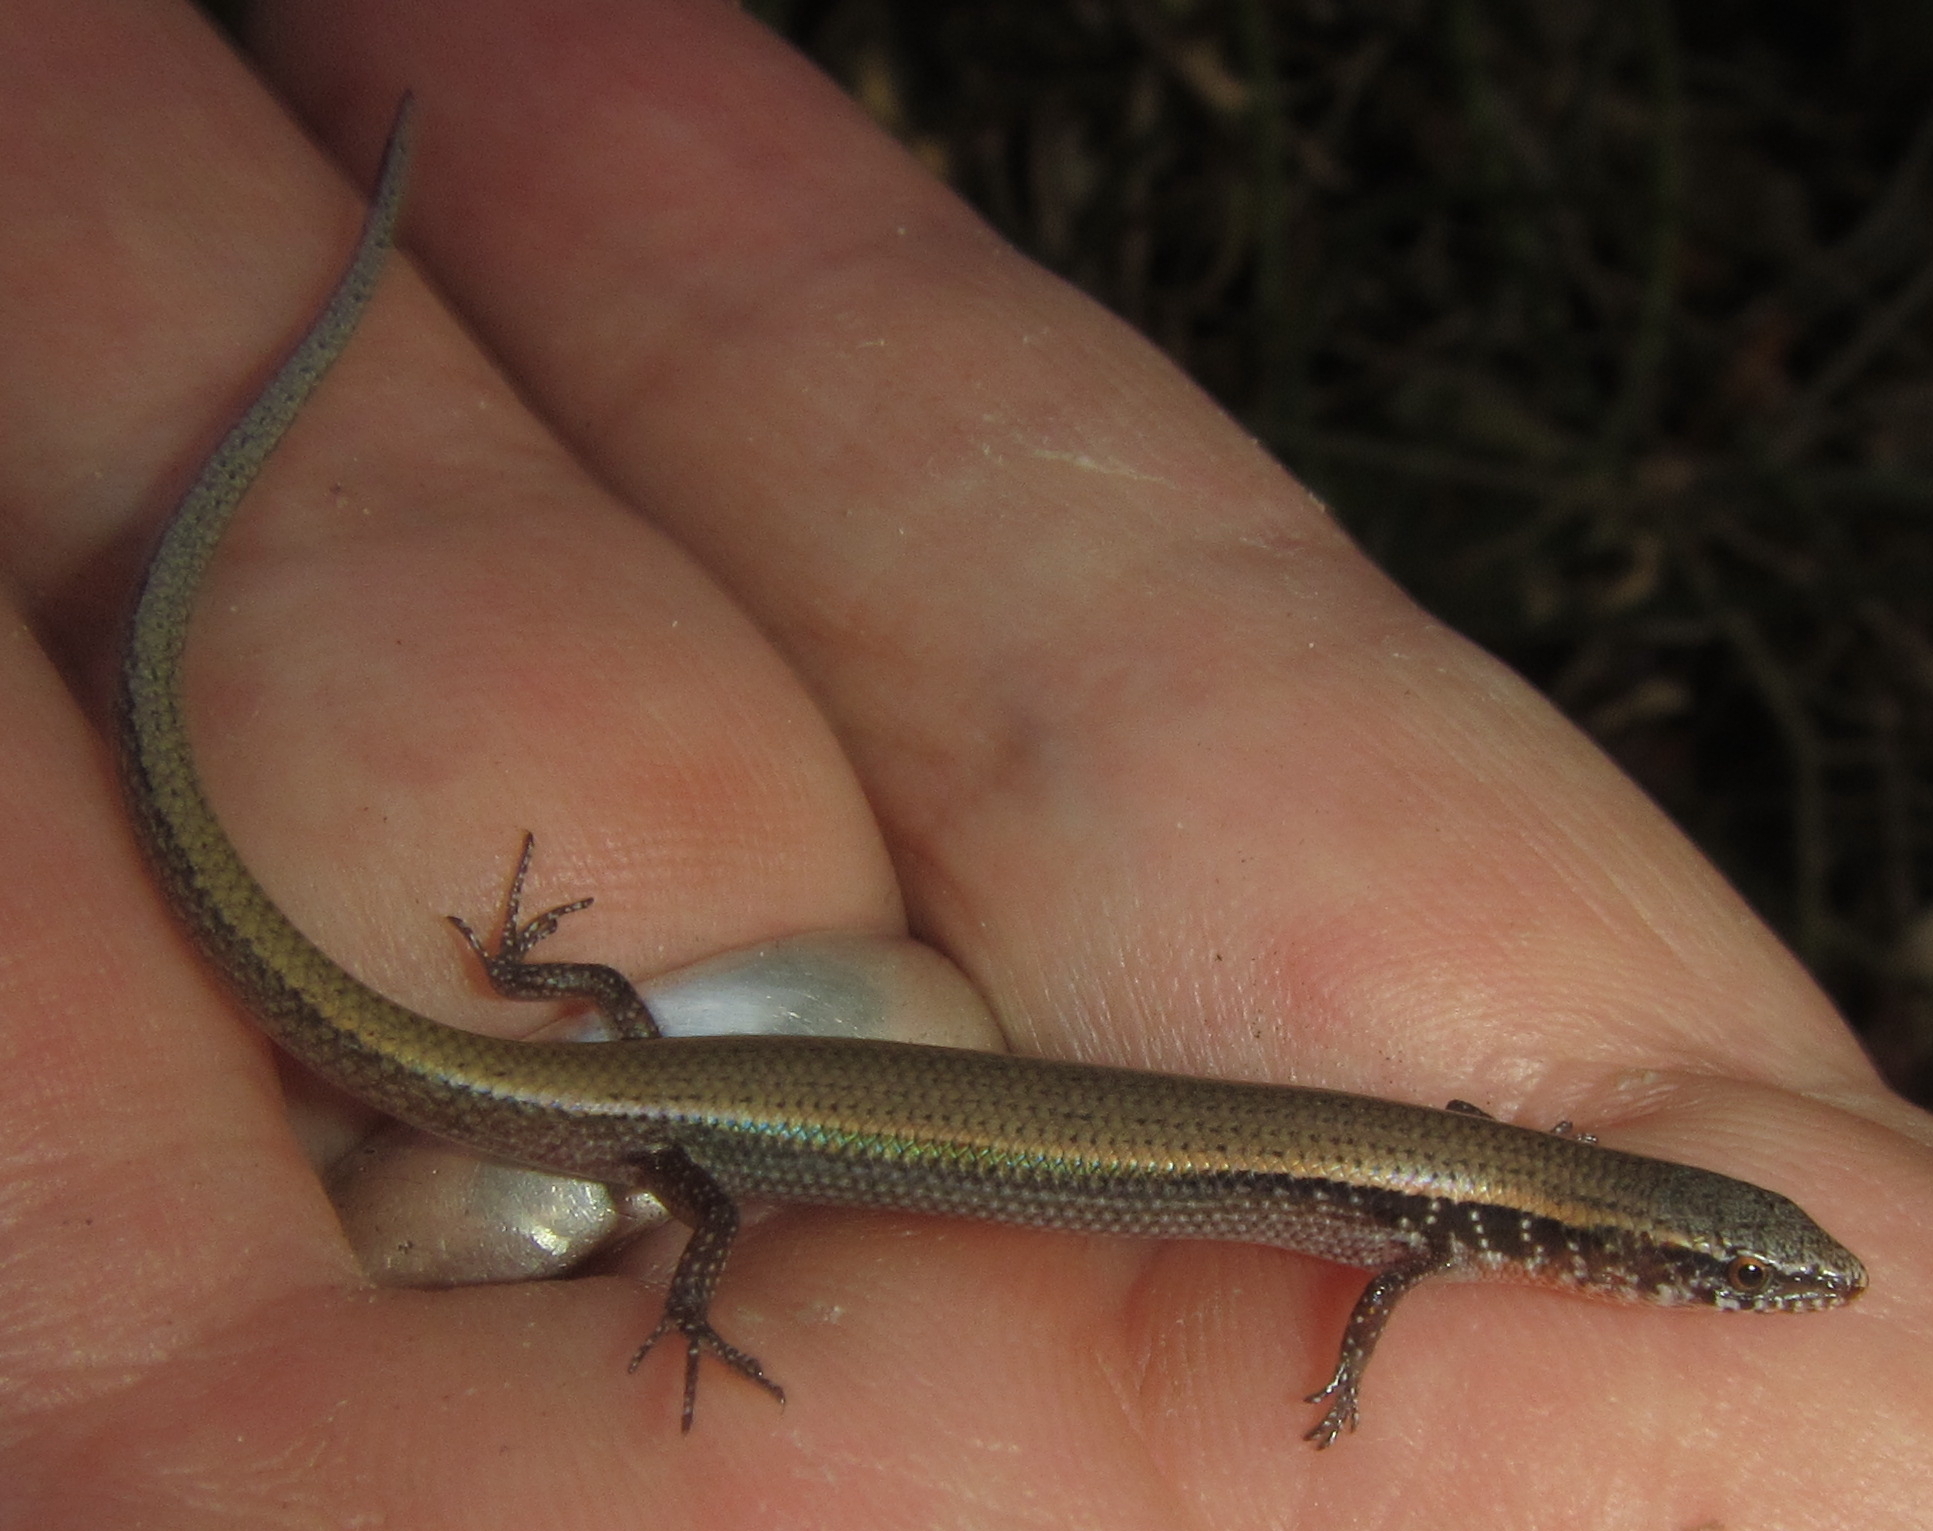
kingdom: Animalia
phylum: Chordata
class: Squamata
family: Scincidae
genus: Panaspis
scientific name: Panaspis maculicollis
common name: Spotted-neck snake-eyed skink
